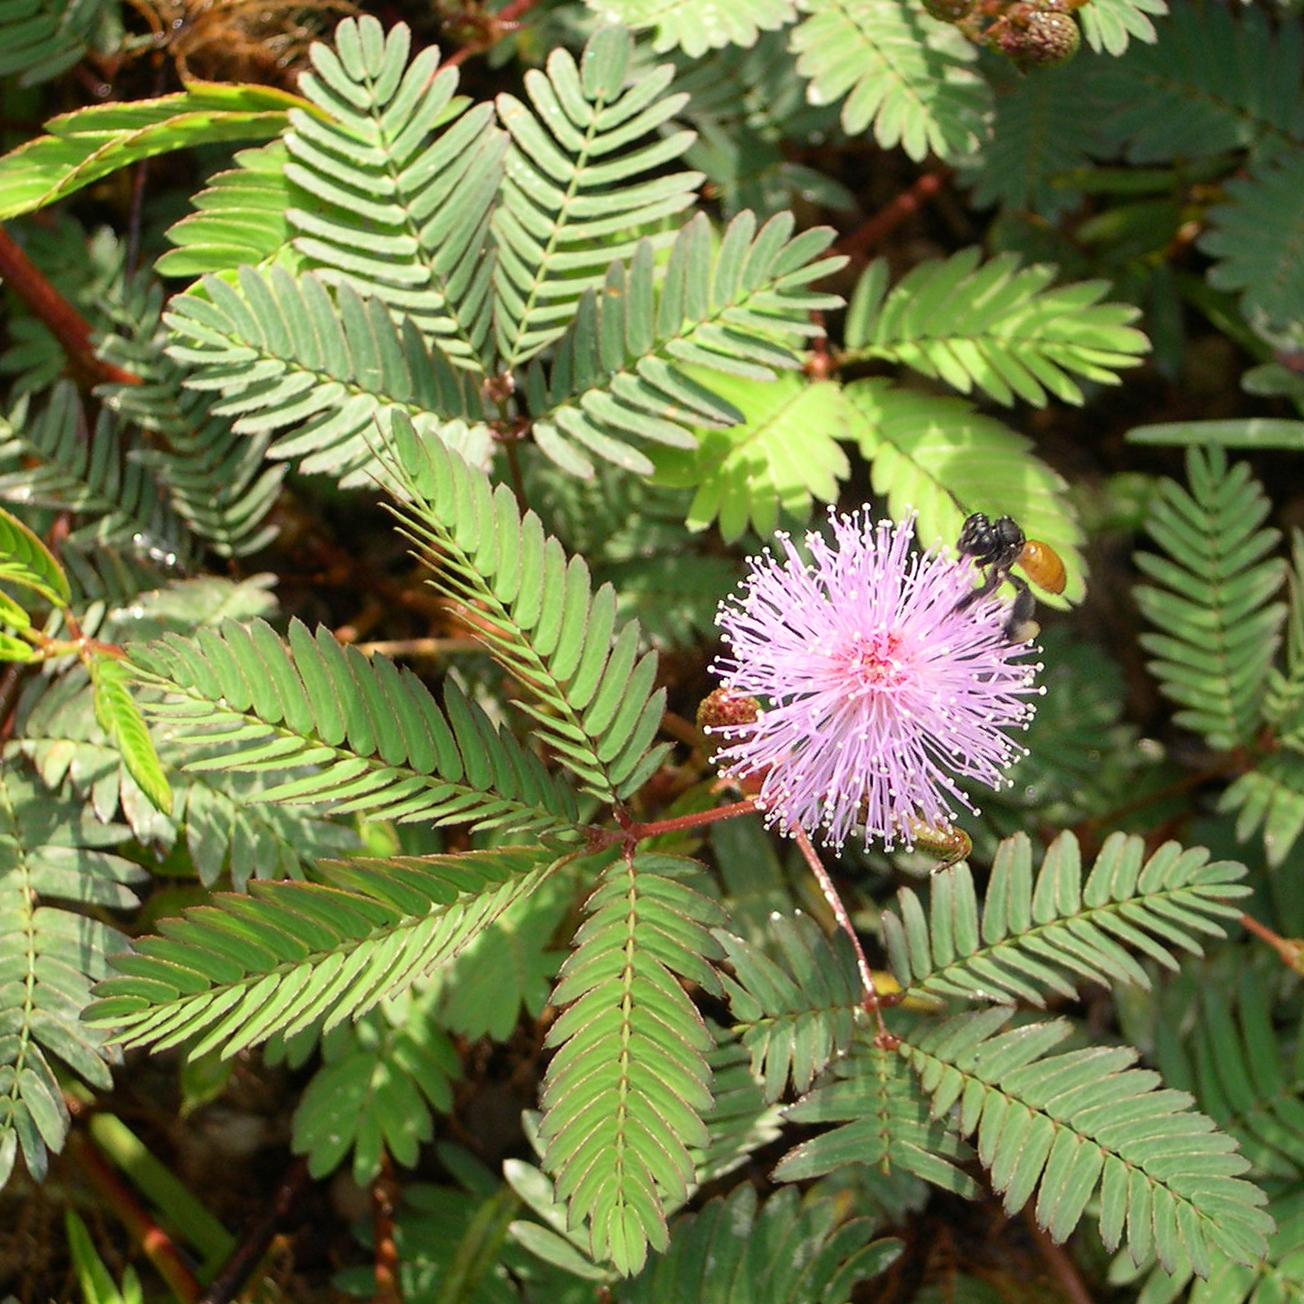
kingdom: Animalia
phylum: Arthropoda
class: Insecta
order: Hymenoptera
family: Apidae
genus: Paratetrapedia
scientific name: Paratetrapedia
